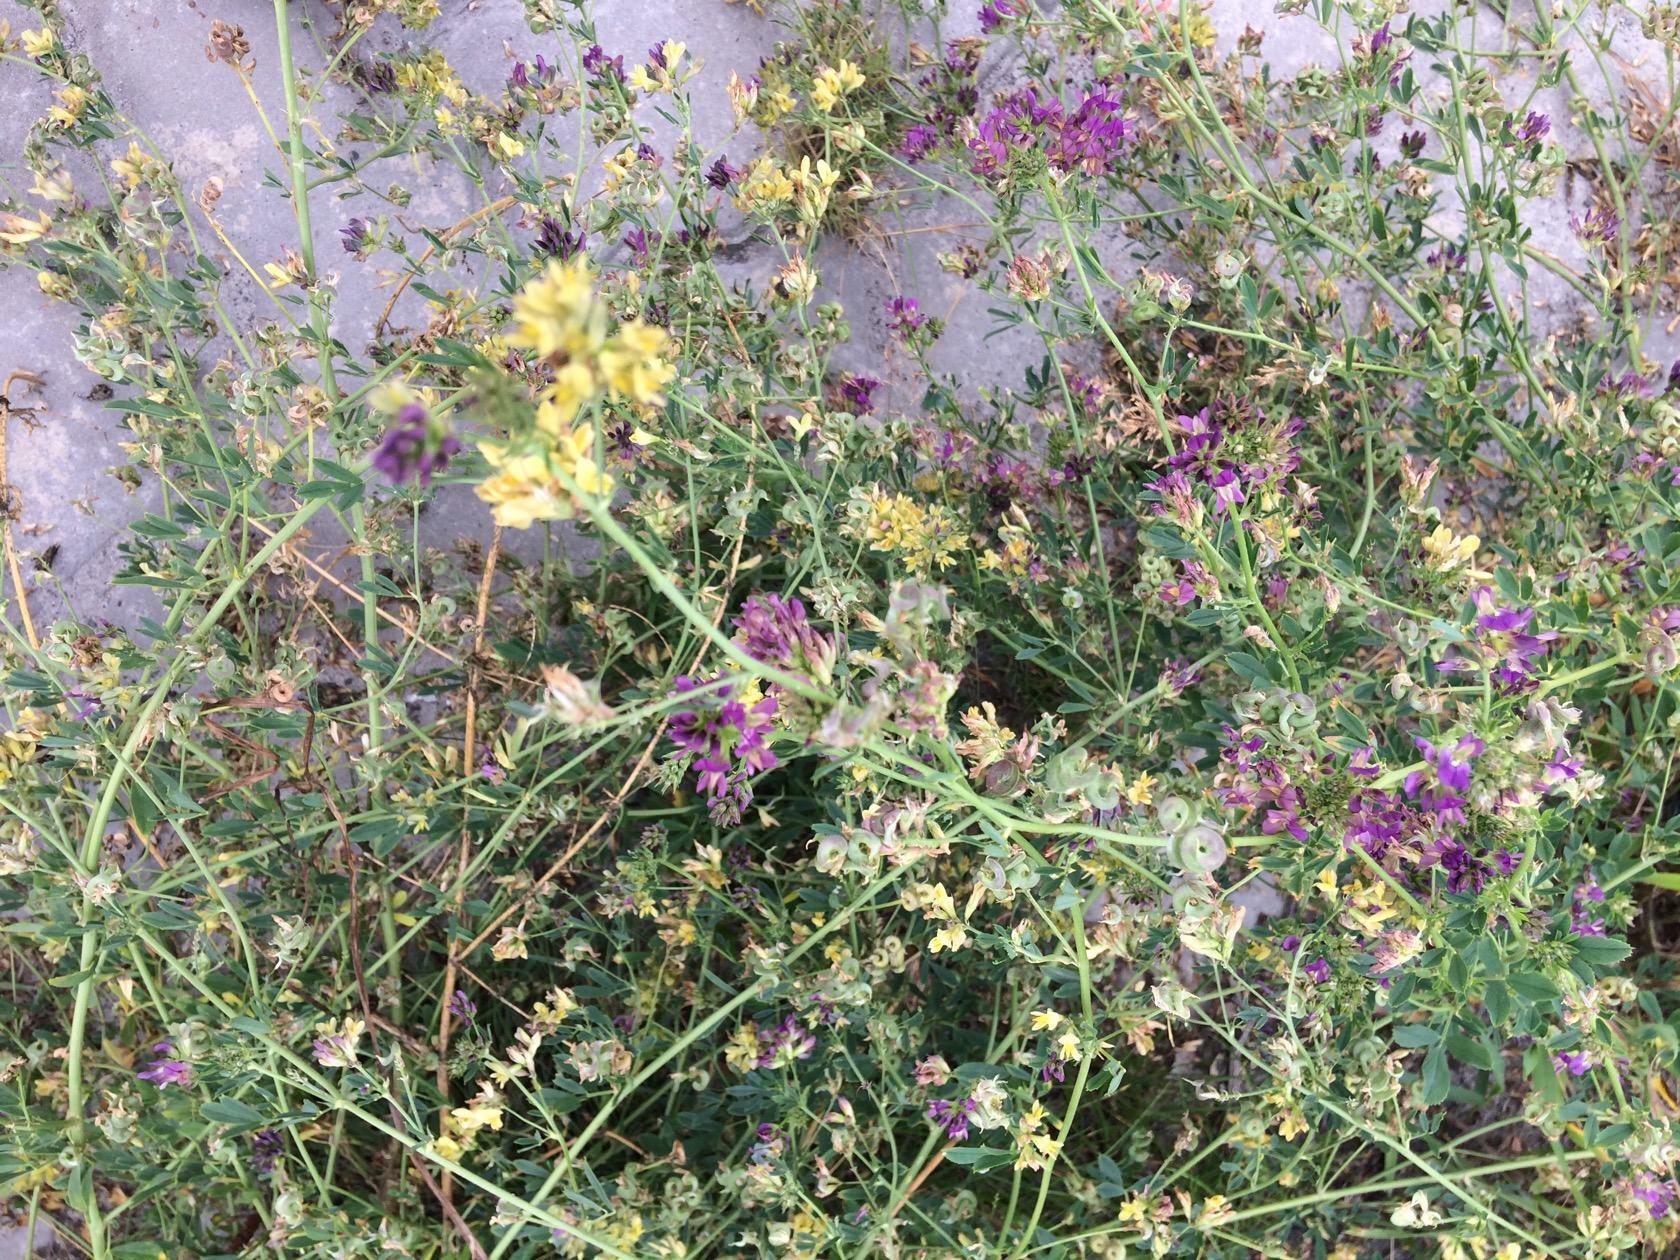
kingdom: Plantae
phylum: Tracheophyta
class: Magnoliopsida
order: Fabales
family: Fabaceae
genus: Medicago
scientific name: Medicago varia
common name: Sand lucerne
